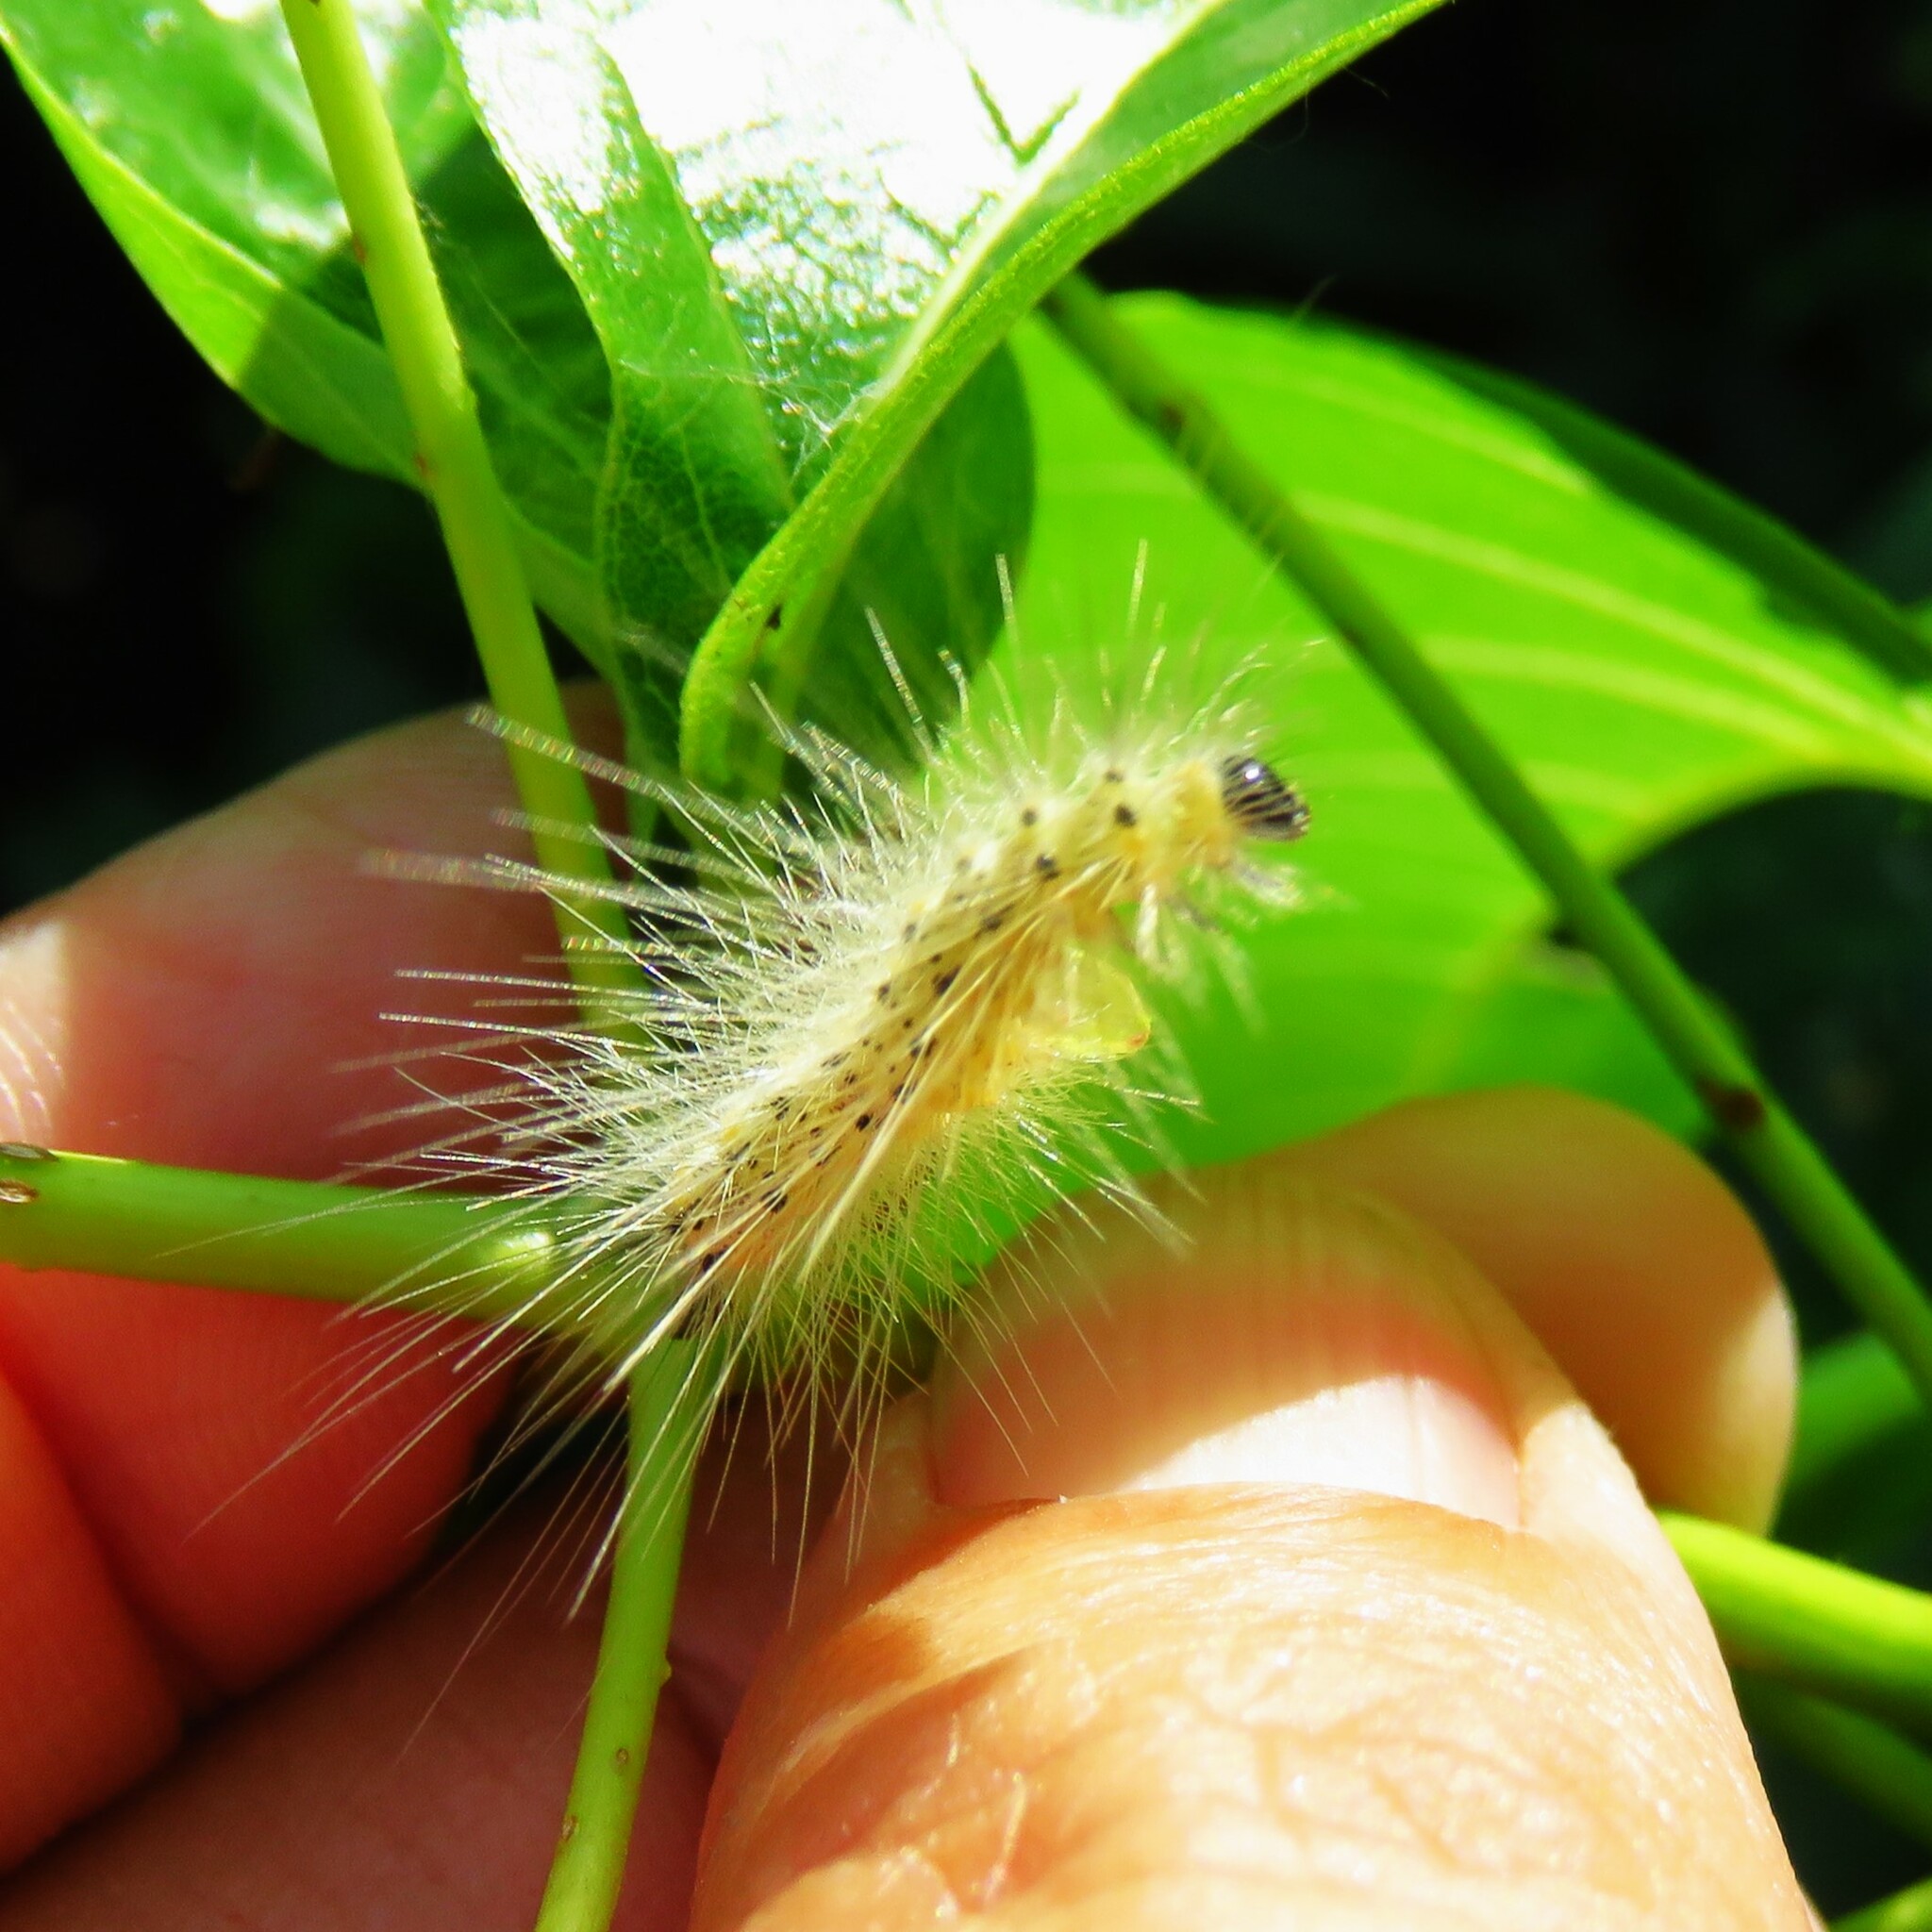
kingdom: Animalia
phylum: Arthropoda
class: Insecta
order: Lepidoptera
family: Erebidae
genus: Hyphantria
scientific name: Hyphantria cunea
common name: American white moth
